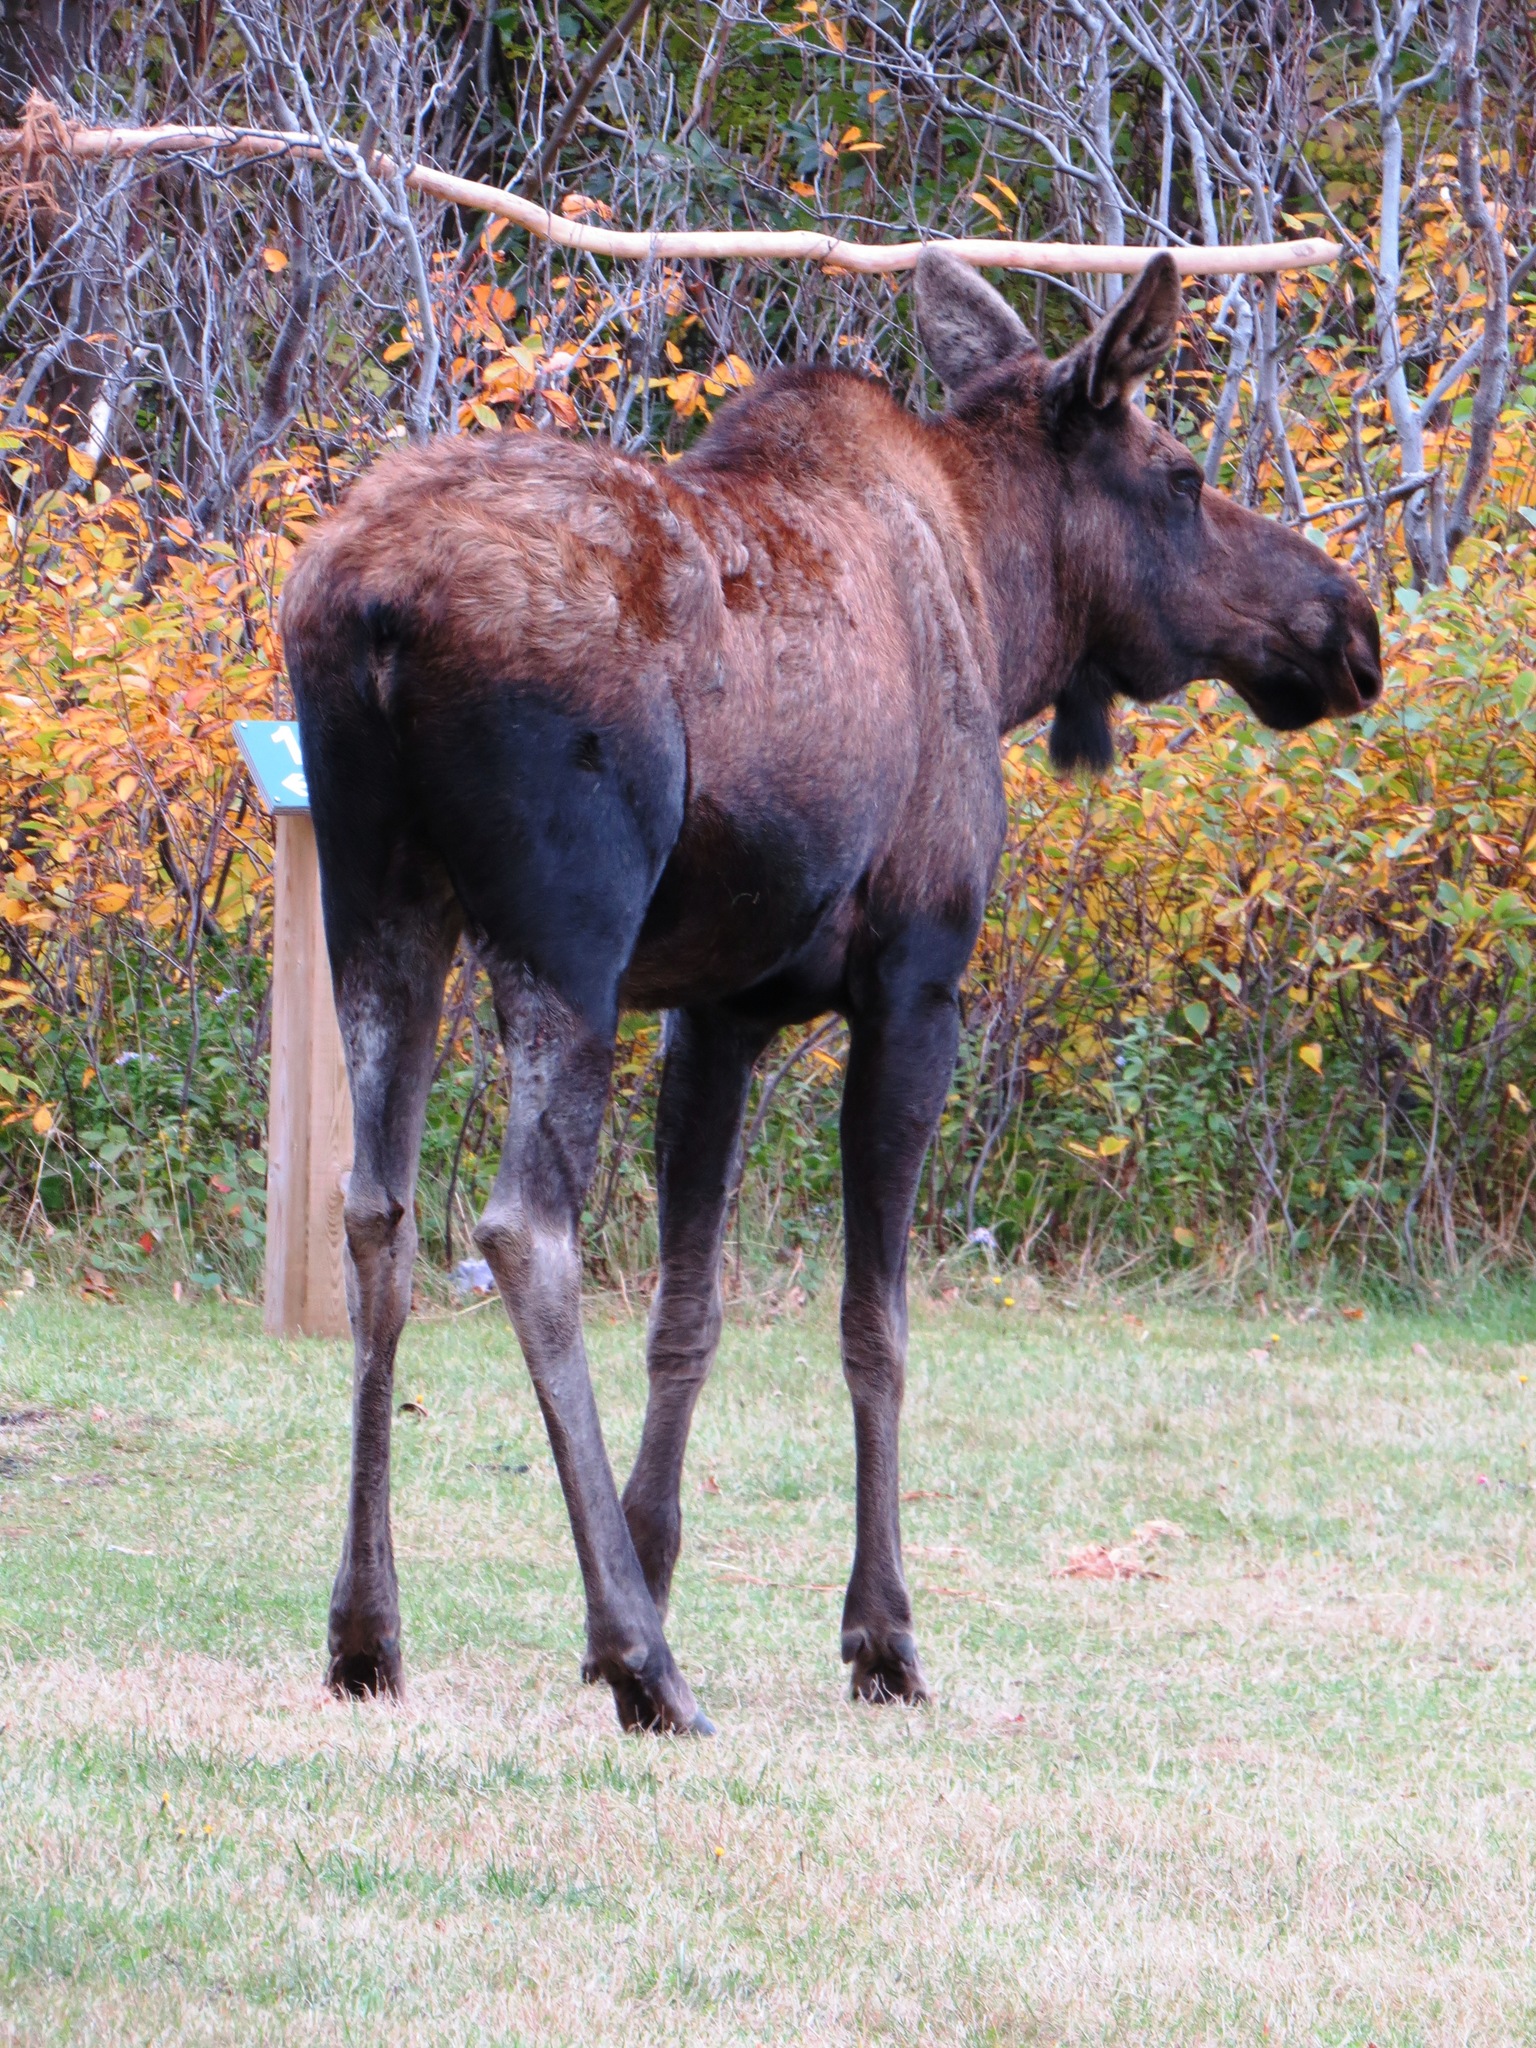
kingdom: Animalia
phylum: Chordata
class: Mammalia
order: Artiodactyla
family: Cervidae
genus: Alces
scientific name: Alces americanus
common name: Moose
